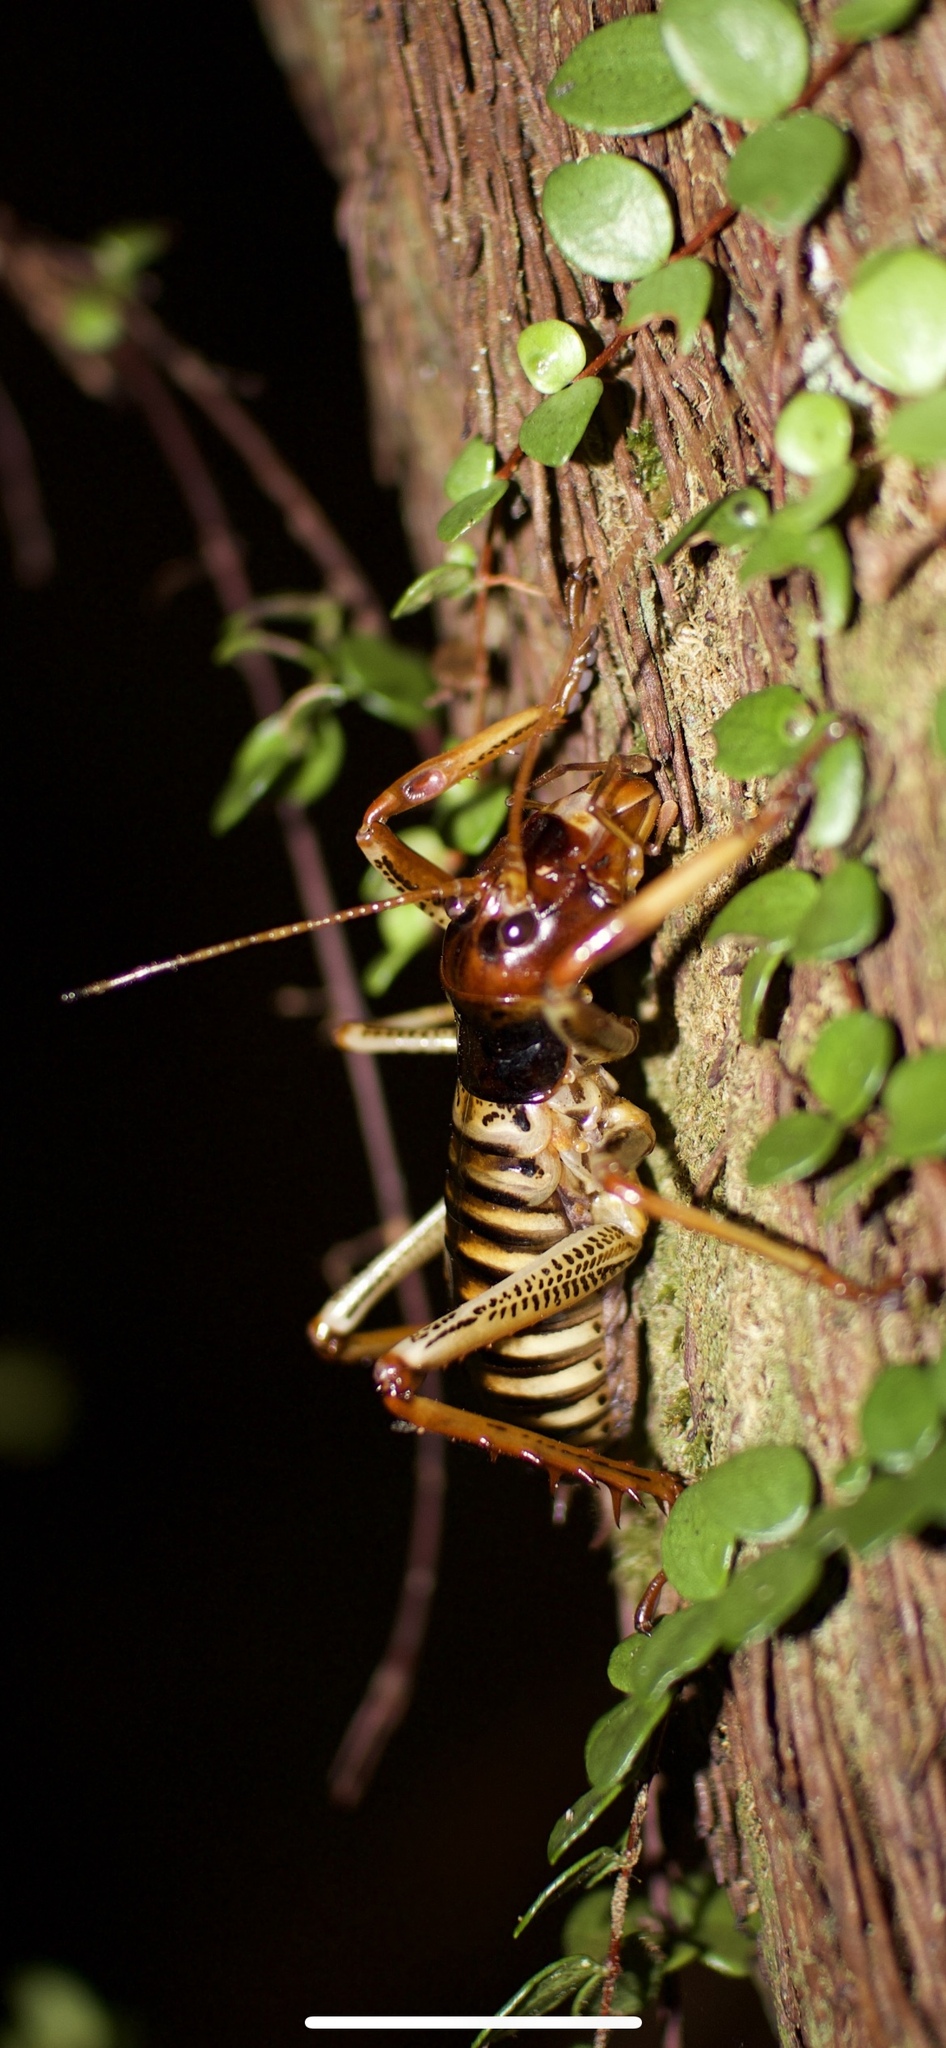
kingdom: Animalia
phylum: Arthropoda
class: Insecta
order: Orthoptera
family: Anostostomatidae
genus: Hemideina
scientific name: Hemideina crassidens
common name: Wellington tree weta
